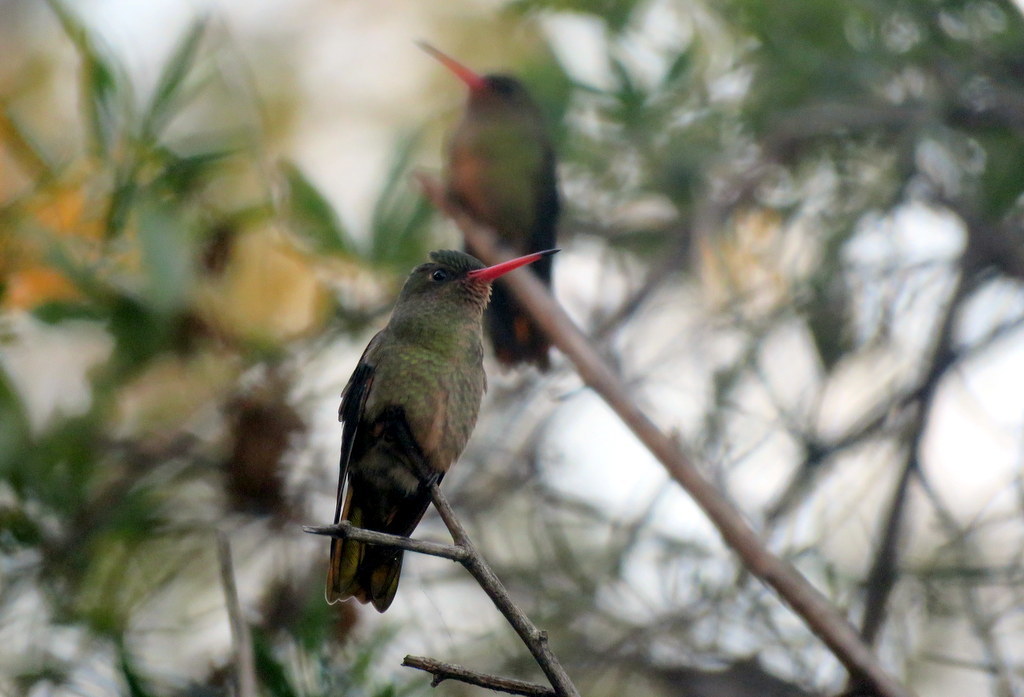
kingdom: Animalia
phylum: Chordata
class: Aves
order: Apodiformes
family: Trochilidae
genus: Hylocharis
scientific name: Hylocharis chrysura
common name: Gilded sapphire
